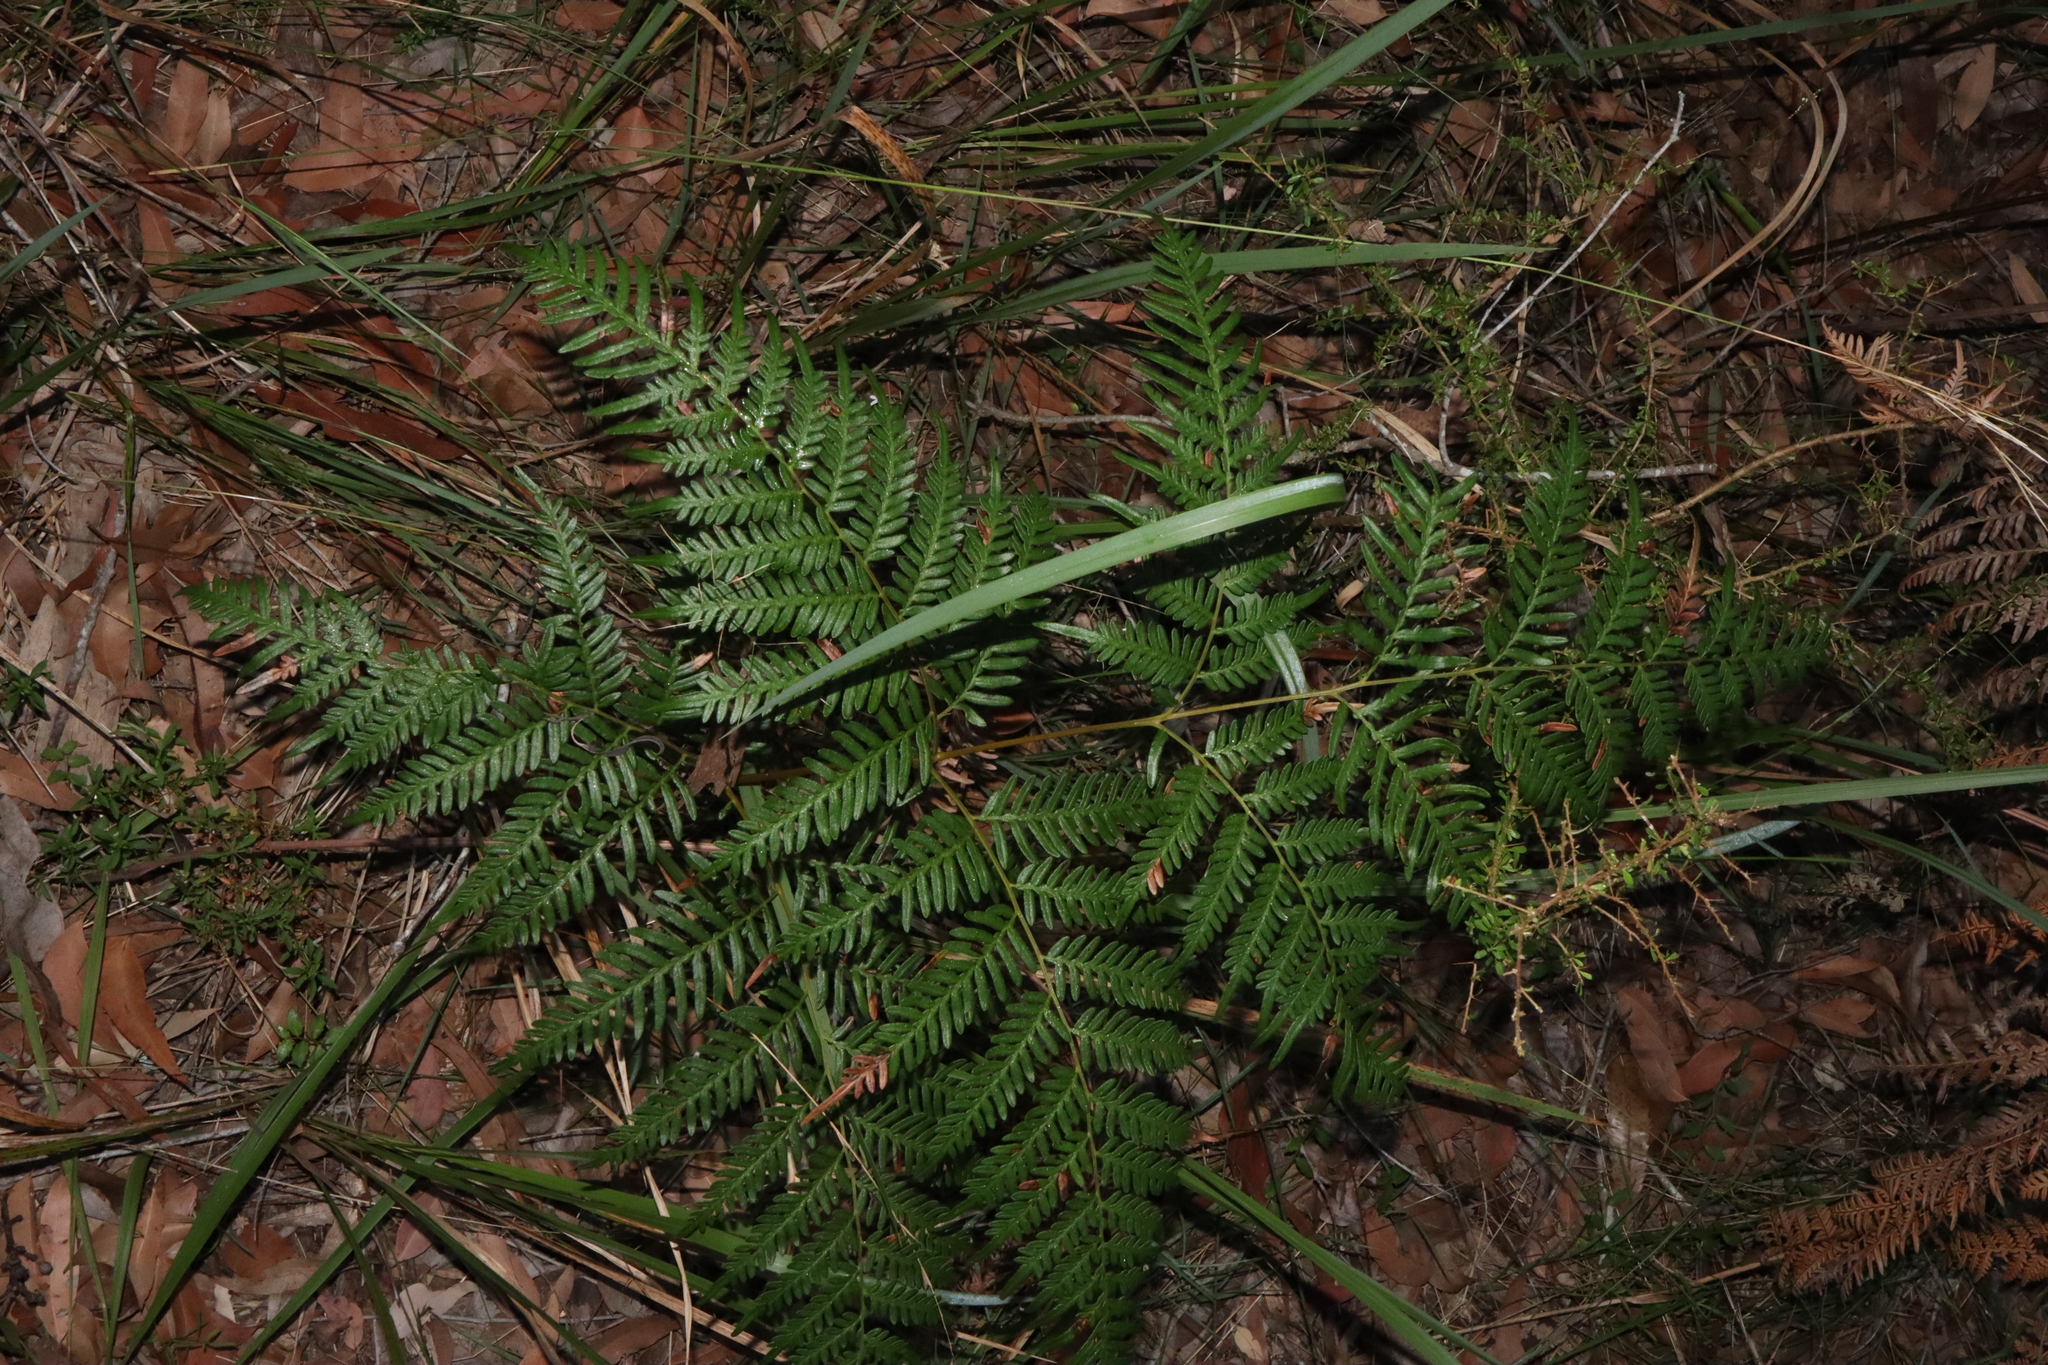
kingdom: Plantae
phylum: Tracheophyta
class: Polypodiopsida
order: Polypodiales
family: Dennstaedtiaceae
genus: Pteridium
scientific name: Pteridium esculentum
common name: Bracken fern
